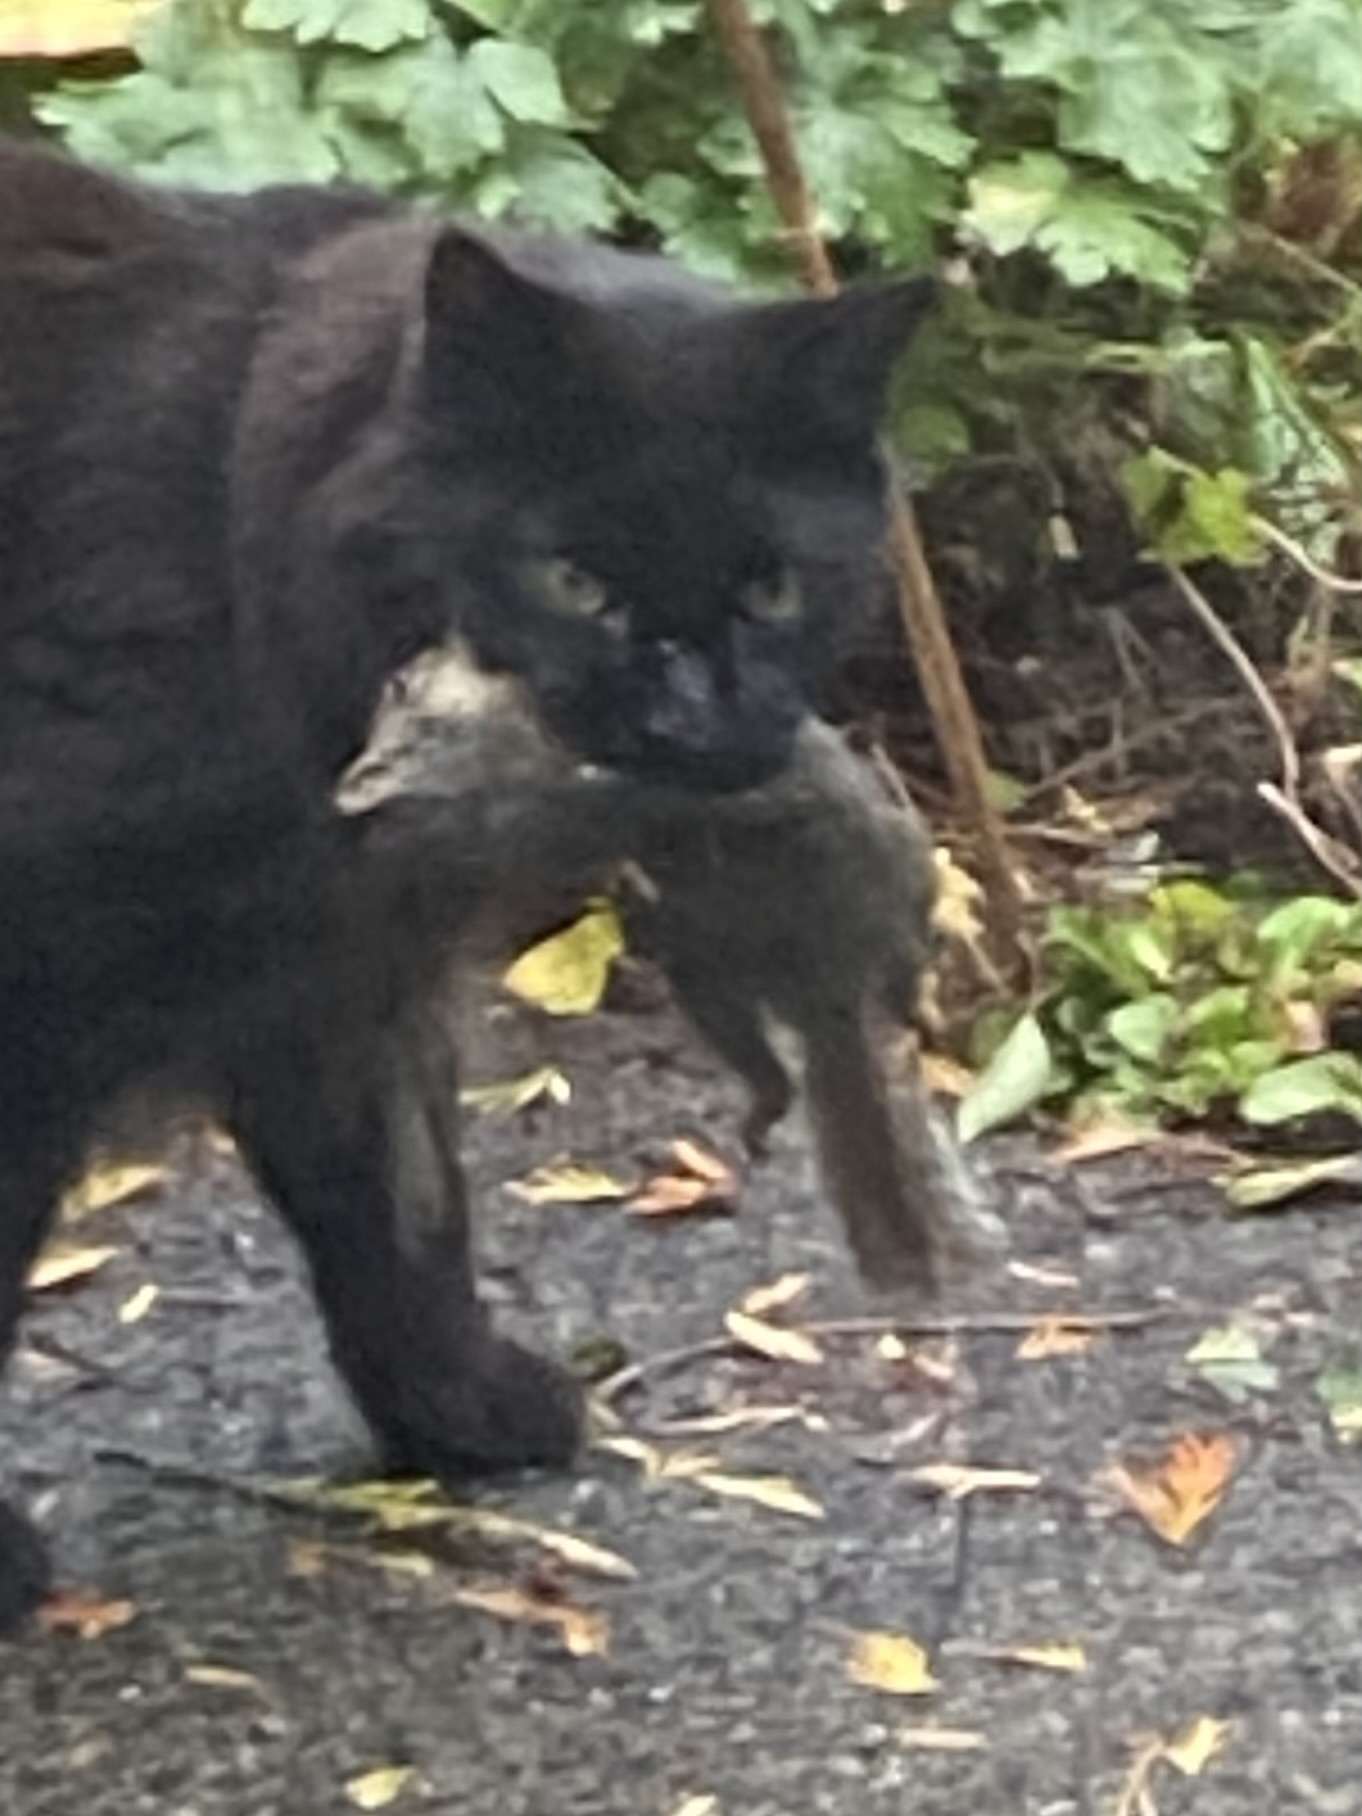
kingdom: Animalia
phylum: Chordata
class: Mammalia
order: Rodentia
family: Sciuridae
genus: Tamiasciurus
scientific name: Tamiasciurus douglasii
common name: Douglas's squirrel
